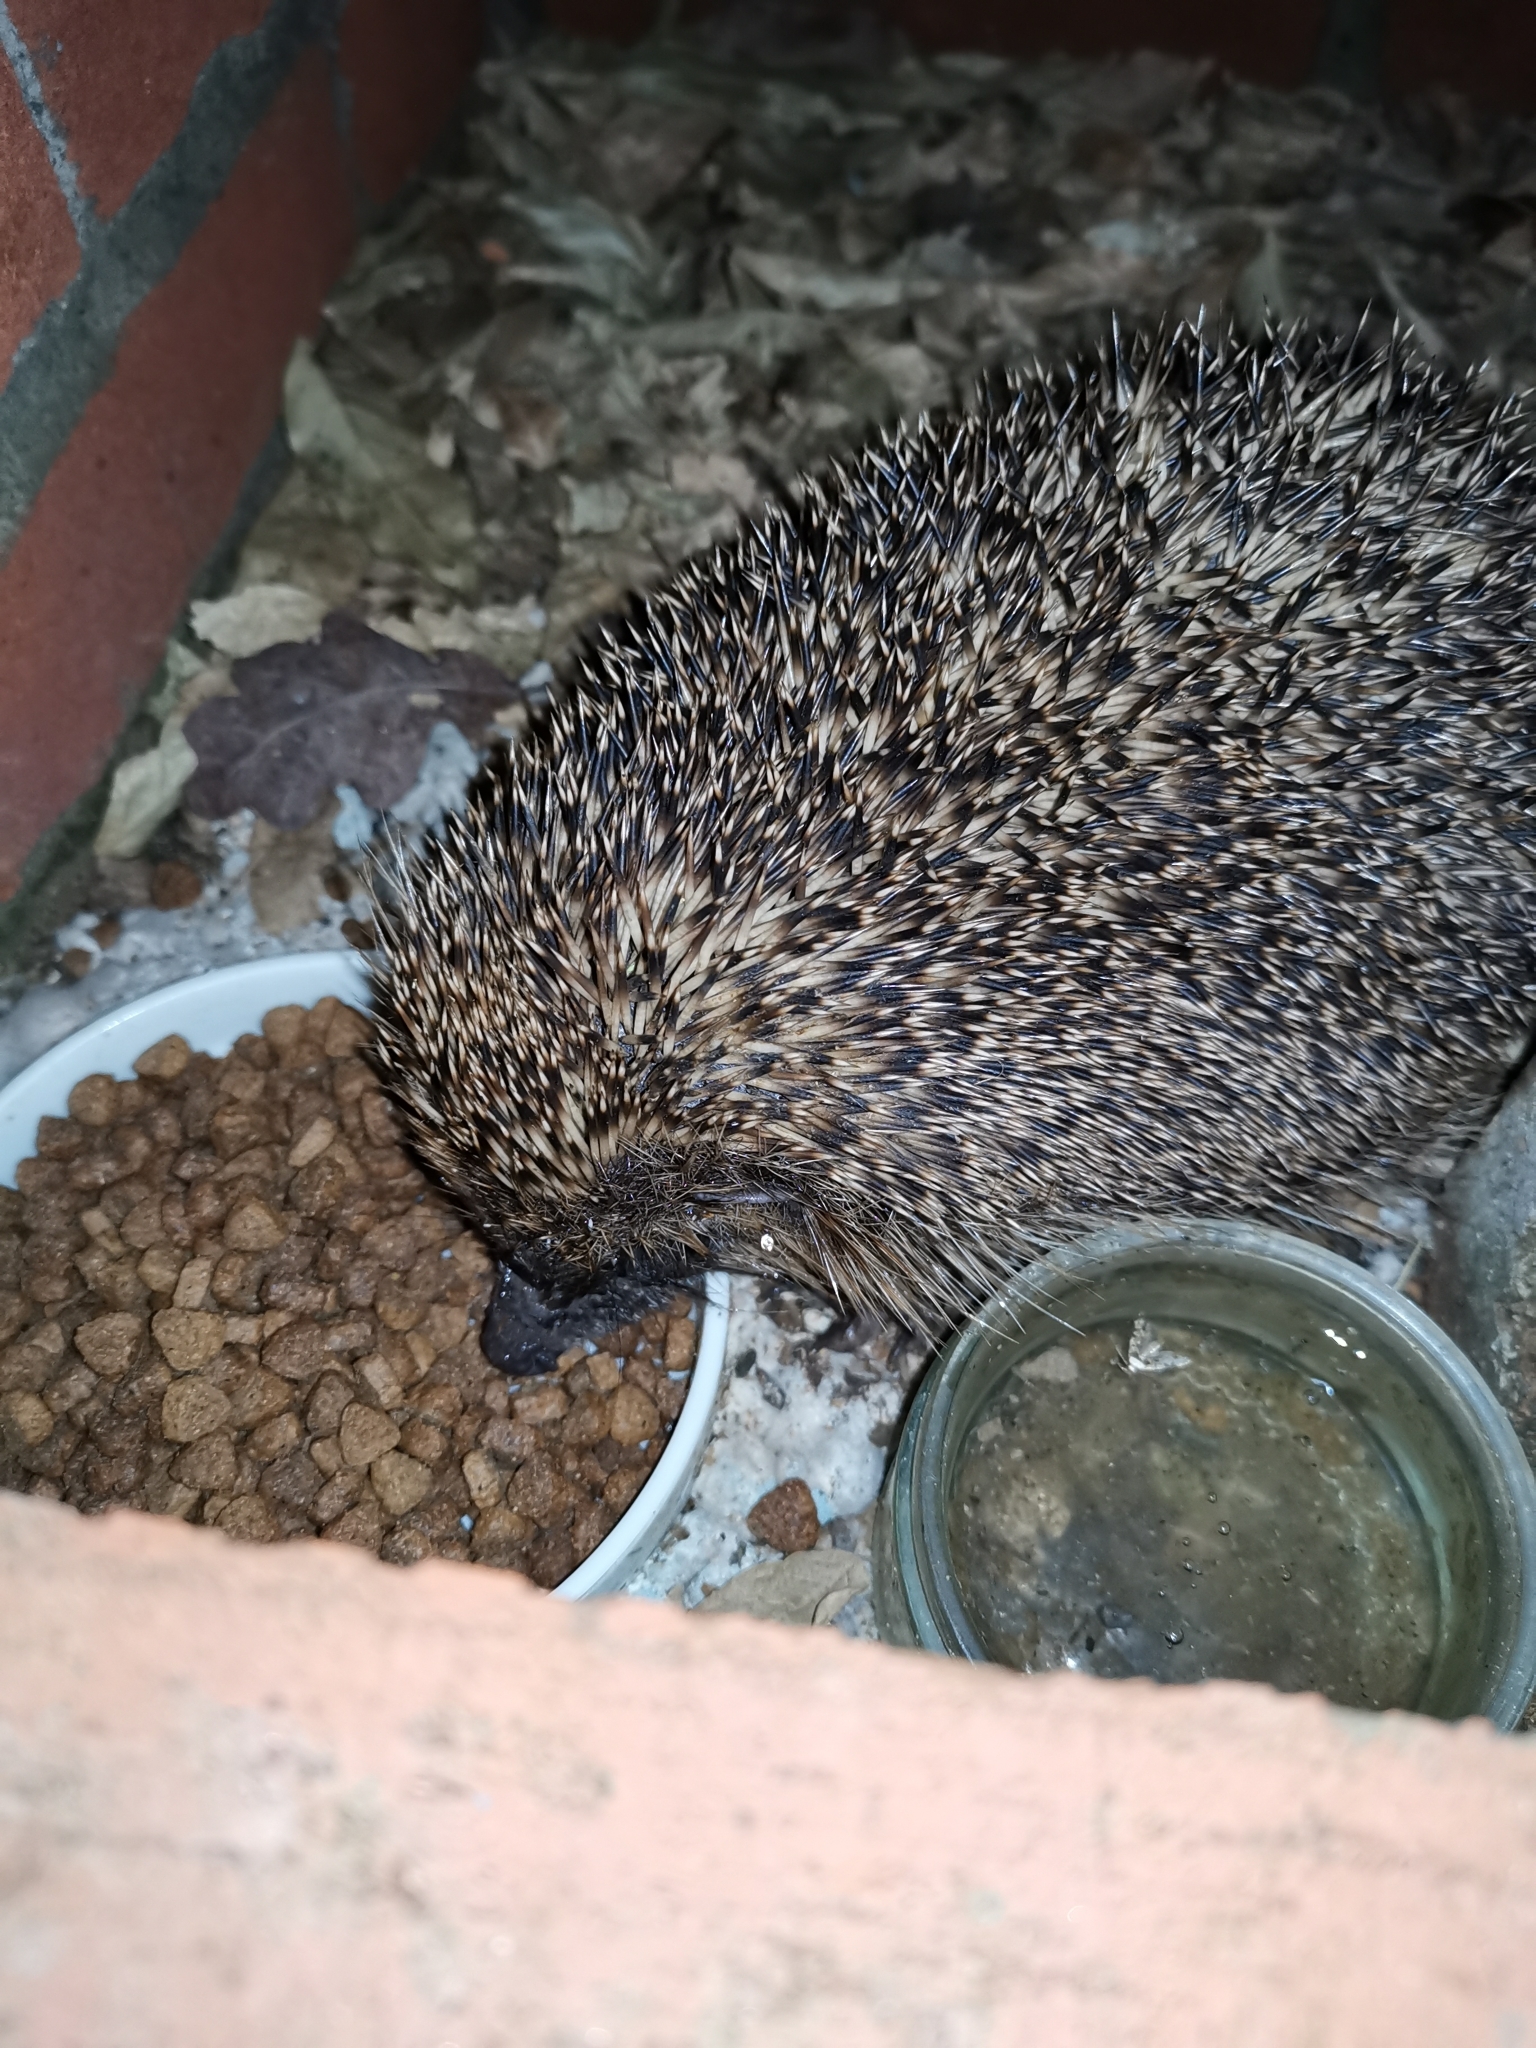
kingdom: Animalia
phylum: Chordata
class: Mammalia
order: Erinaceomorpha
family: Erinaceidae
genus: Erinaceus
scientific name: Erinaceus europaeus
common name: West european hedgehog
